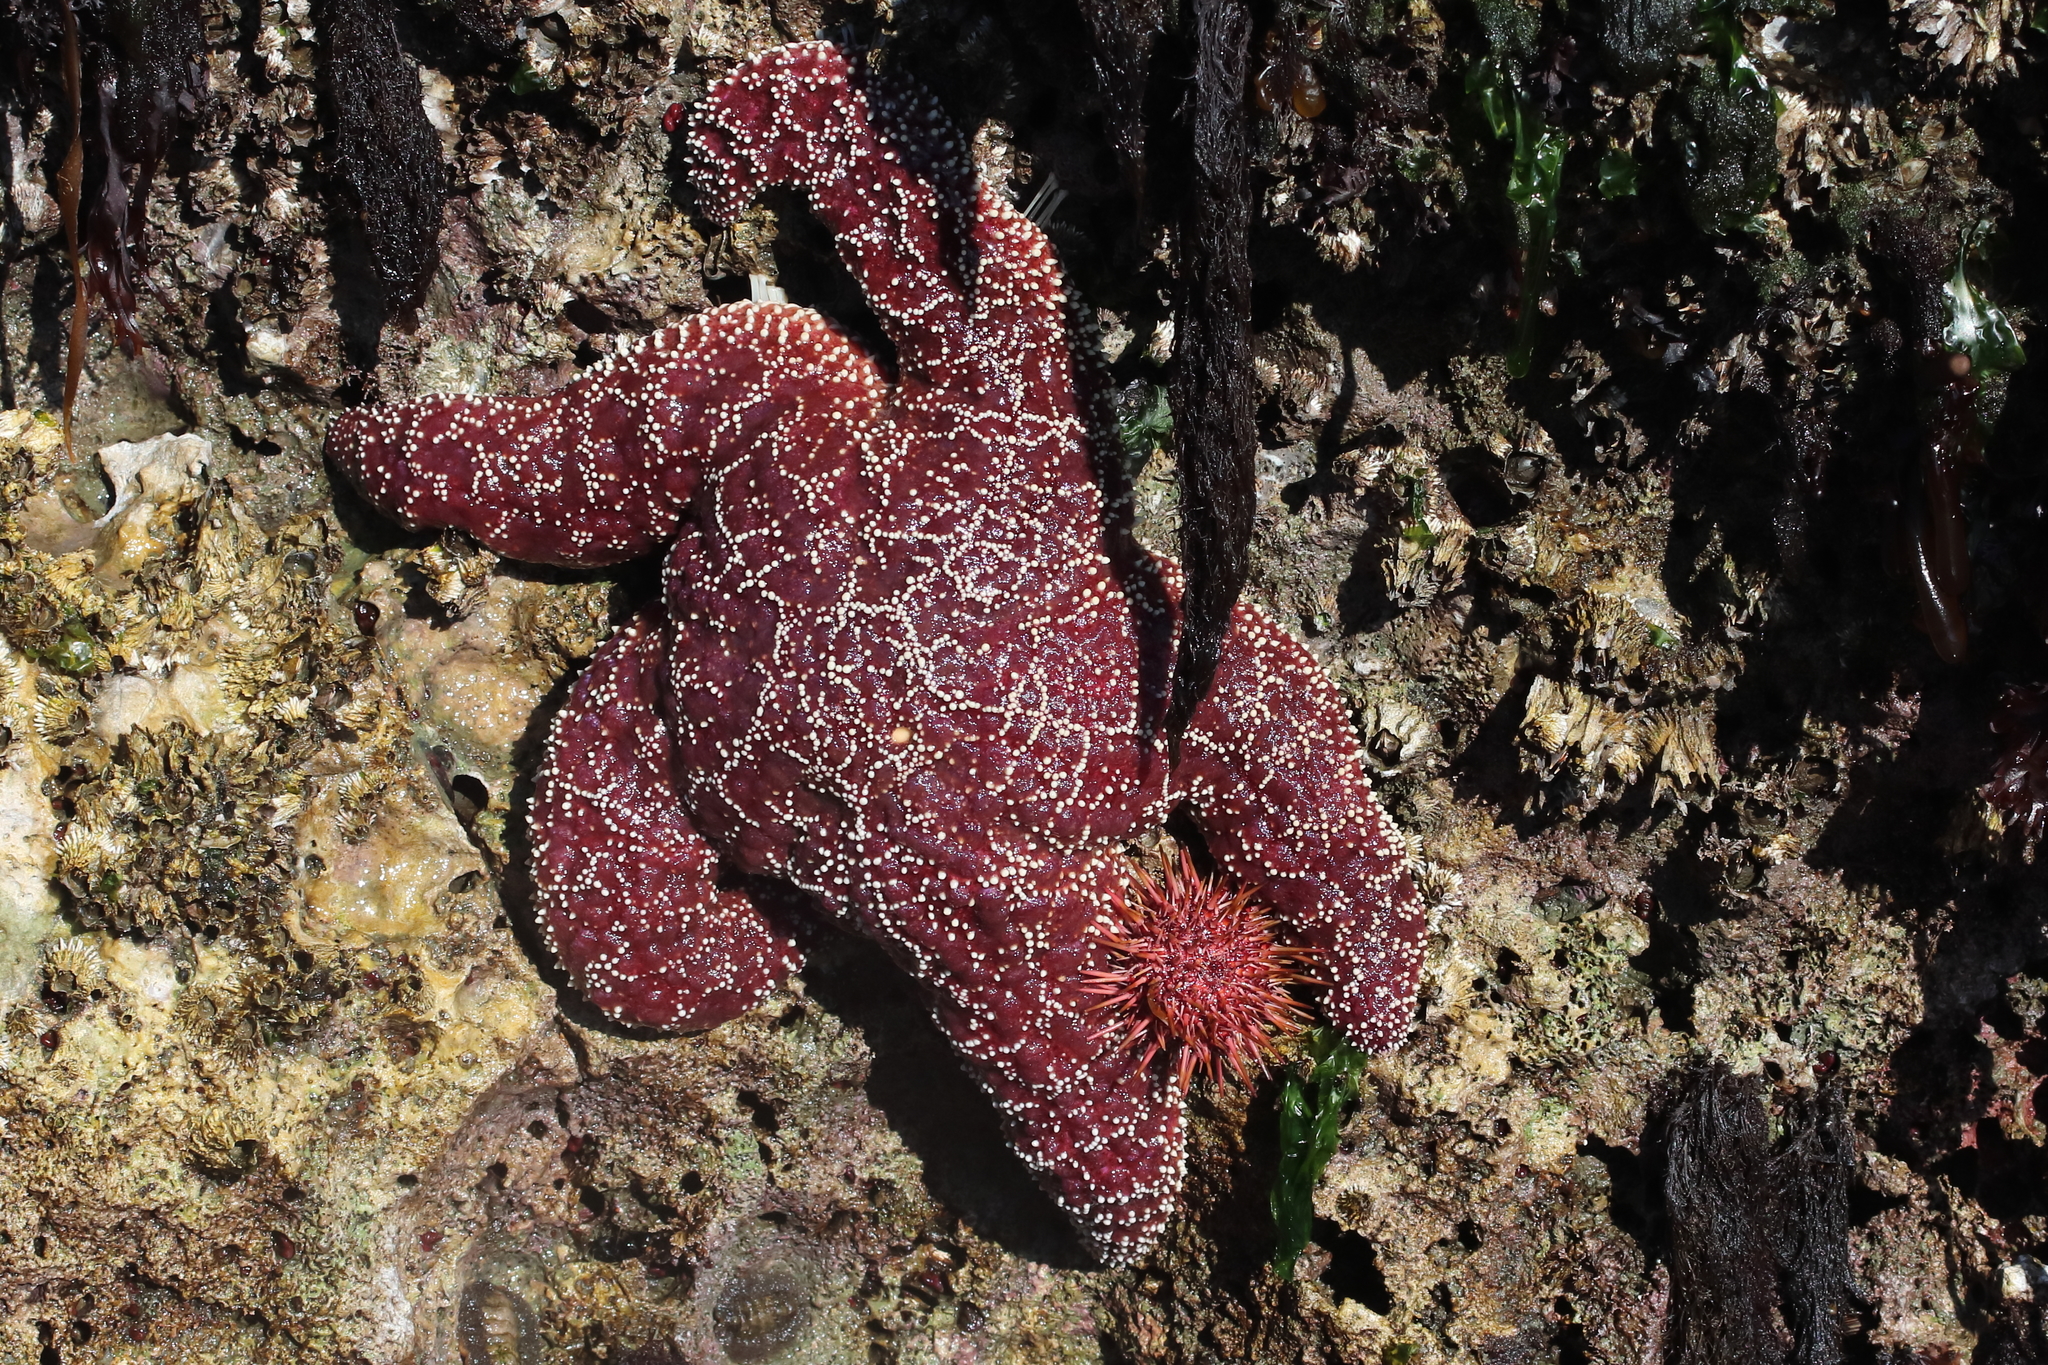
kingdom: Animalia
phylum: Echinodermata
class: Asteroidea
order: Forcipulatida
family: Asteriidae
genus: Pisaster
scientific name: Pisaster ochraceus
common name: Ochre stars
